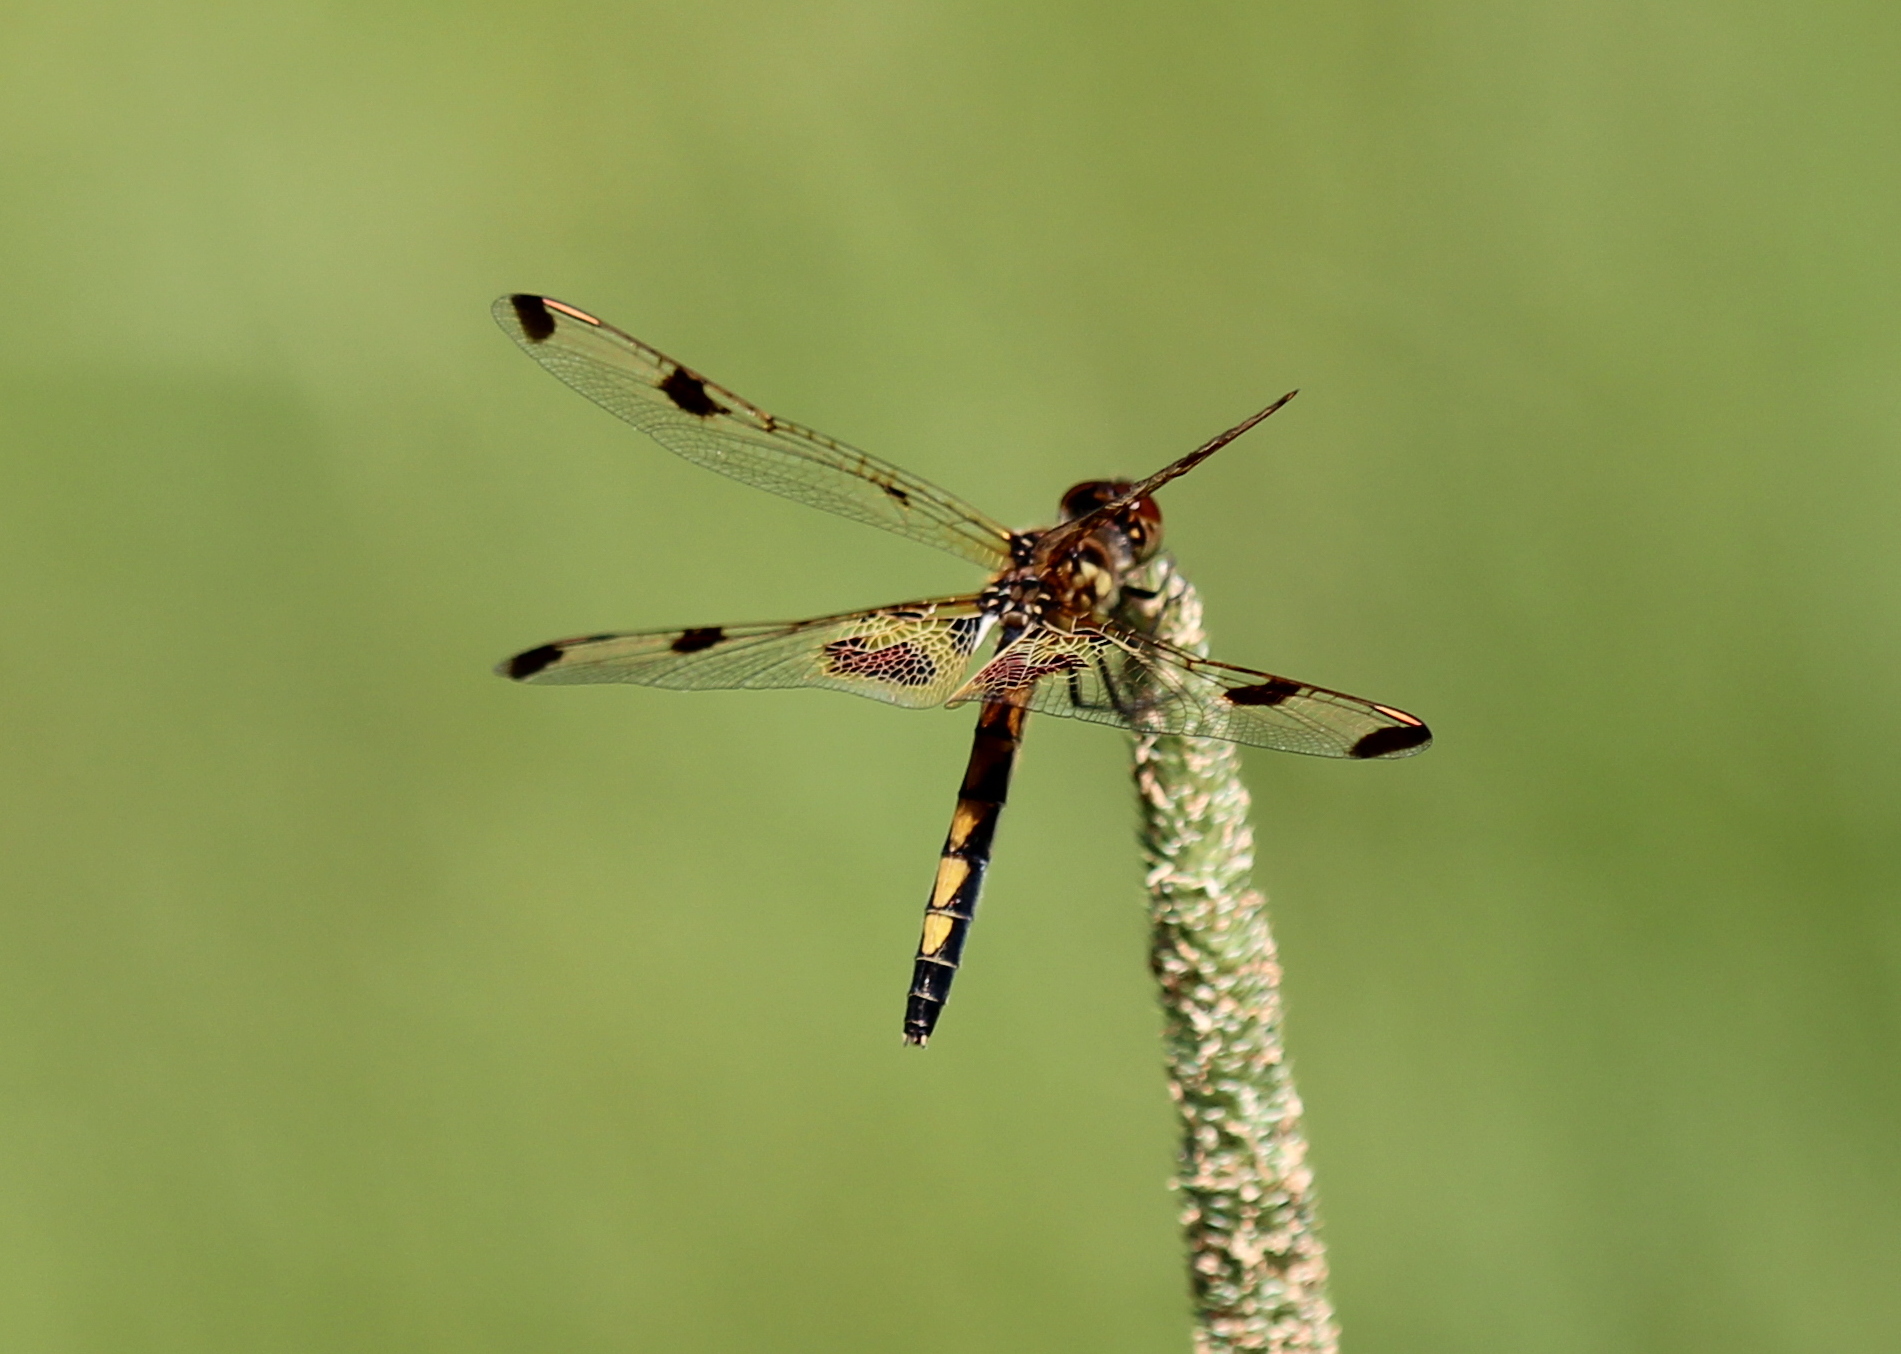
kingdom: Animalia
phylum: Arthropoda
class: Insecta
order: Odonata
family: Libellulidae
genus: Celithemis
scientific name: Celithemis elisa
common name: Calico pennant
